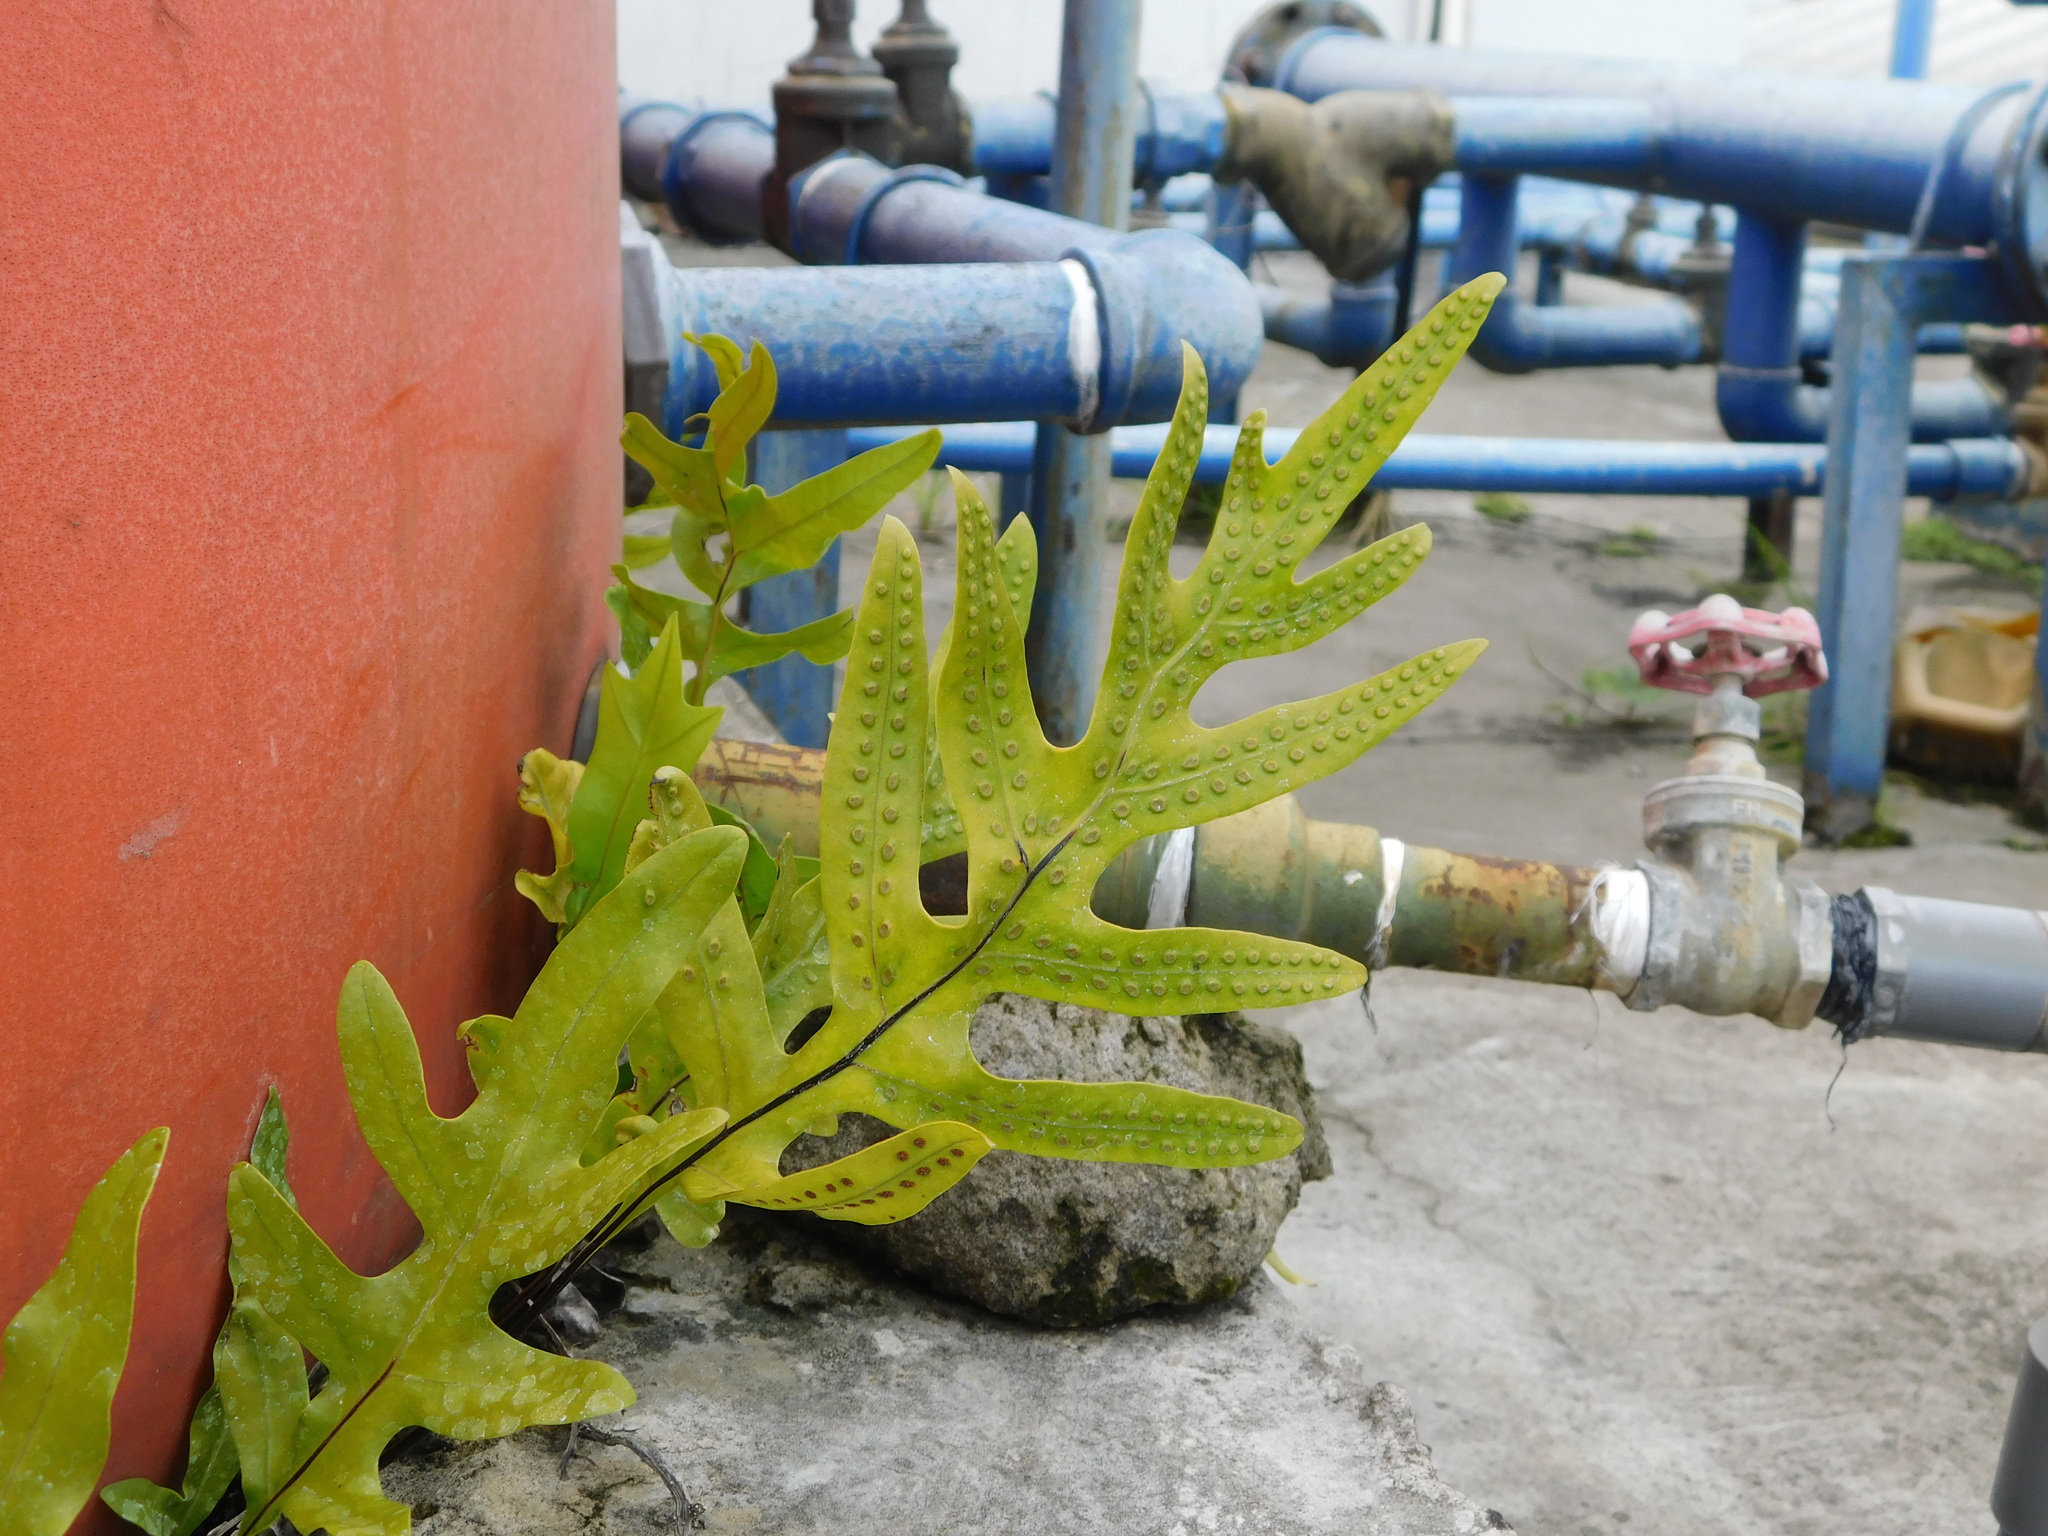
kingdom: Plantae
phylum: Tracheophyta
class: Polypodiopsida
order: Polypodiales
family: Polypodiaceae
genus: Microsorum
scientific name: Microsorum scolopendria
